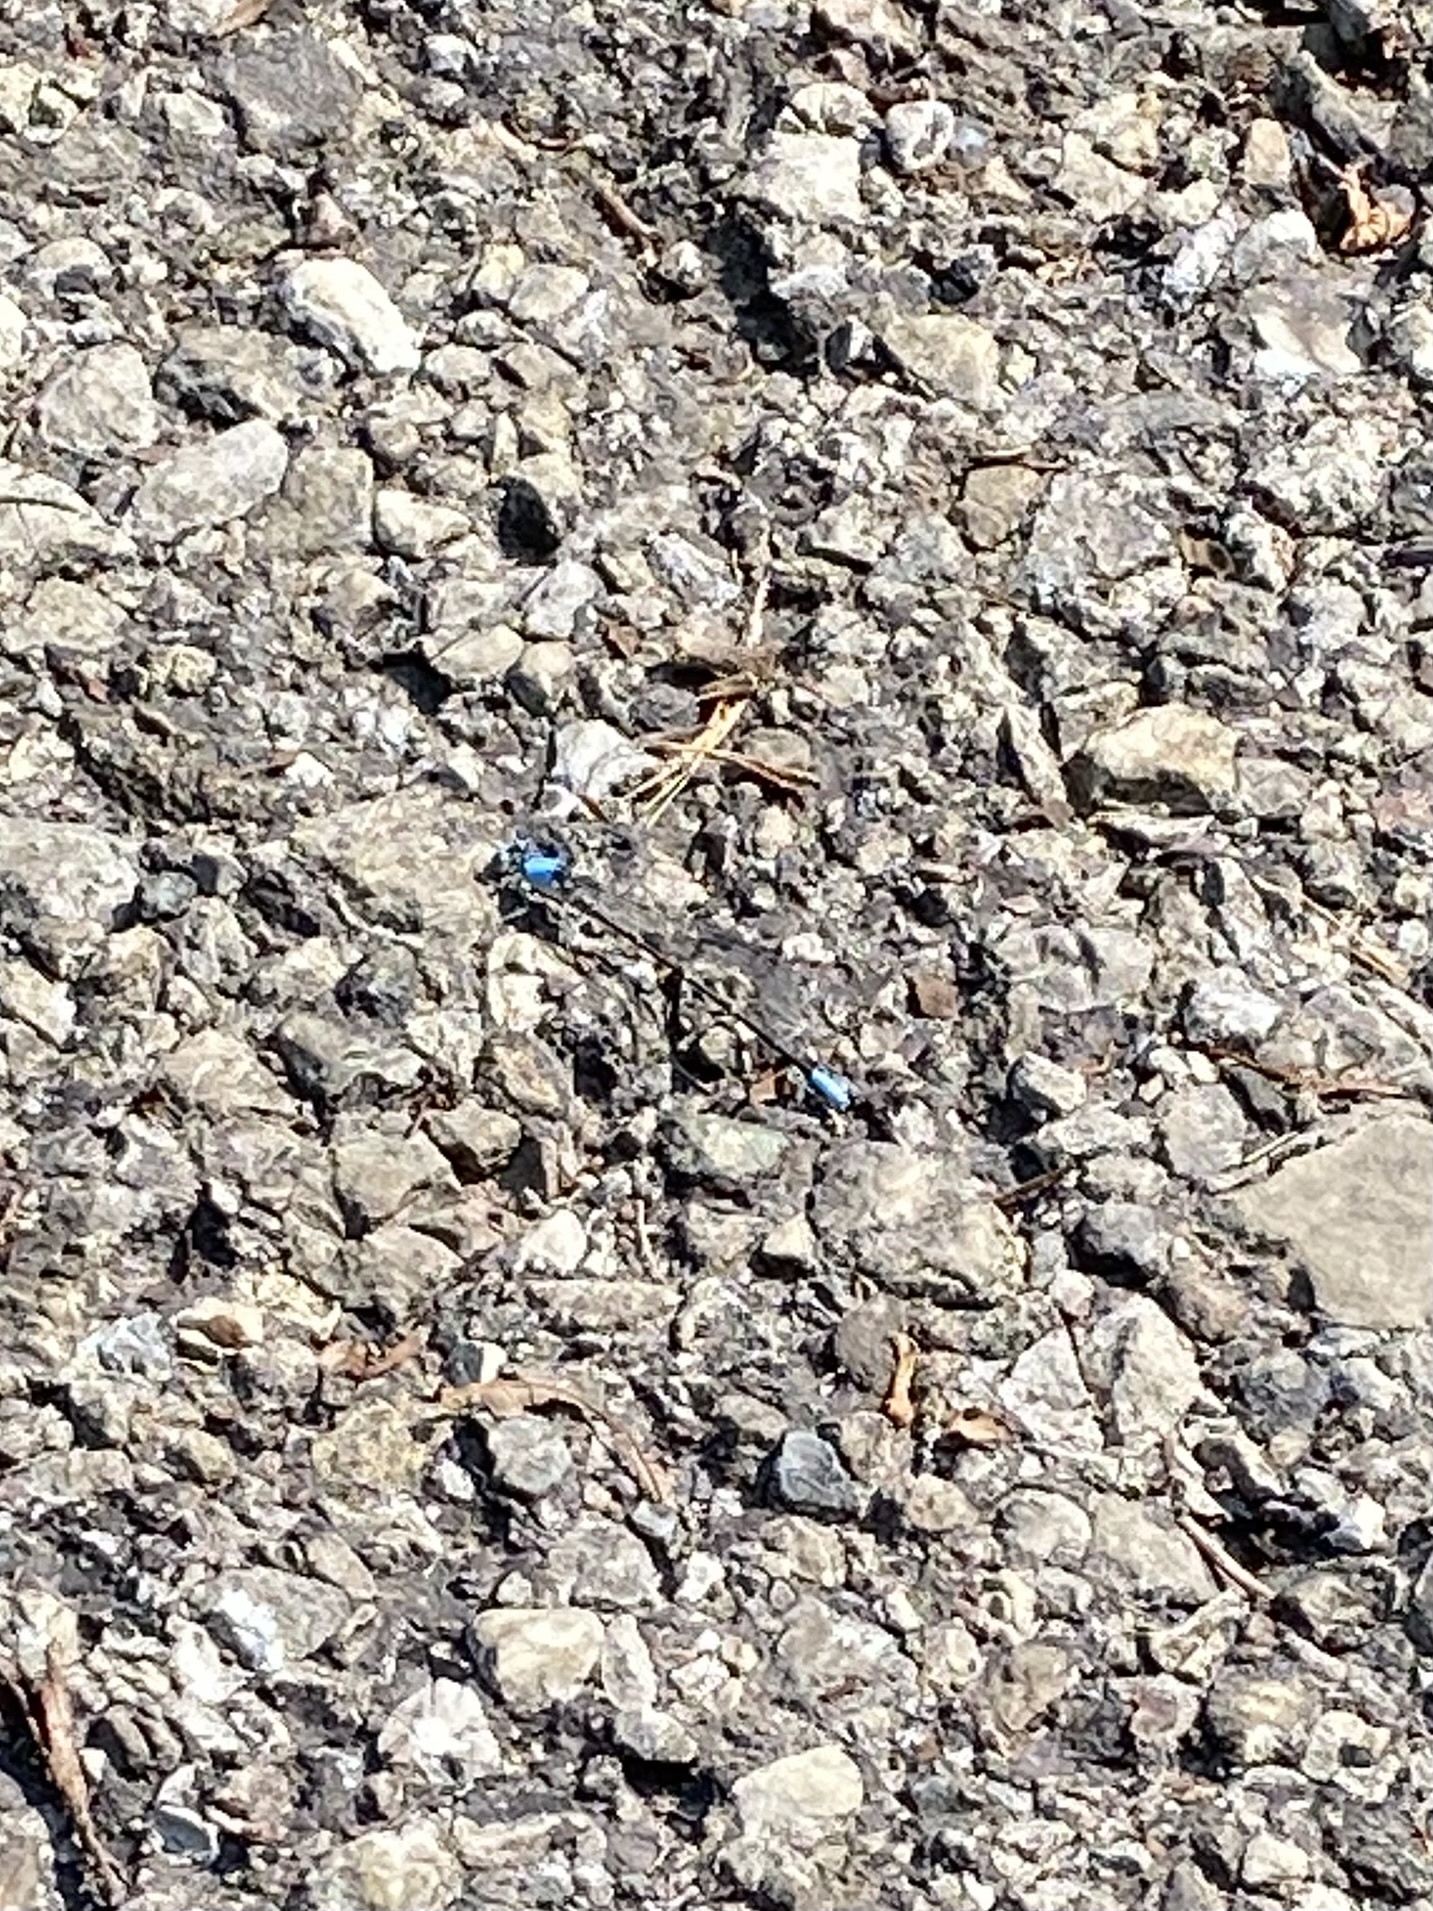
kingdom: Animalia
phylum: Arthropoda
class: Insecta
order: Odonata
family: Coenagrionidae
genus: Argia
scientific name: Argia apicalis
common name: Blue-fronted dancer
